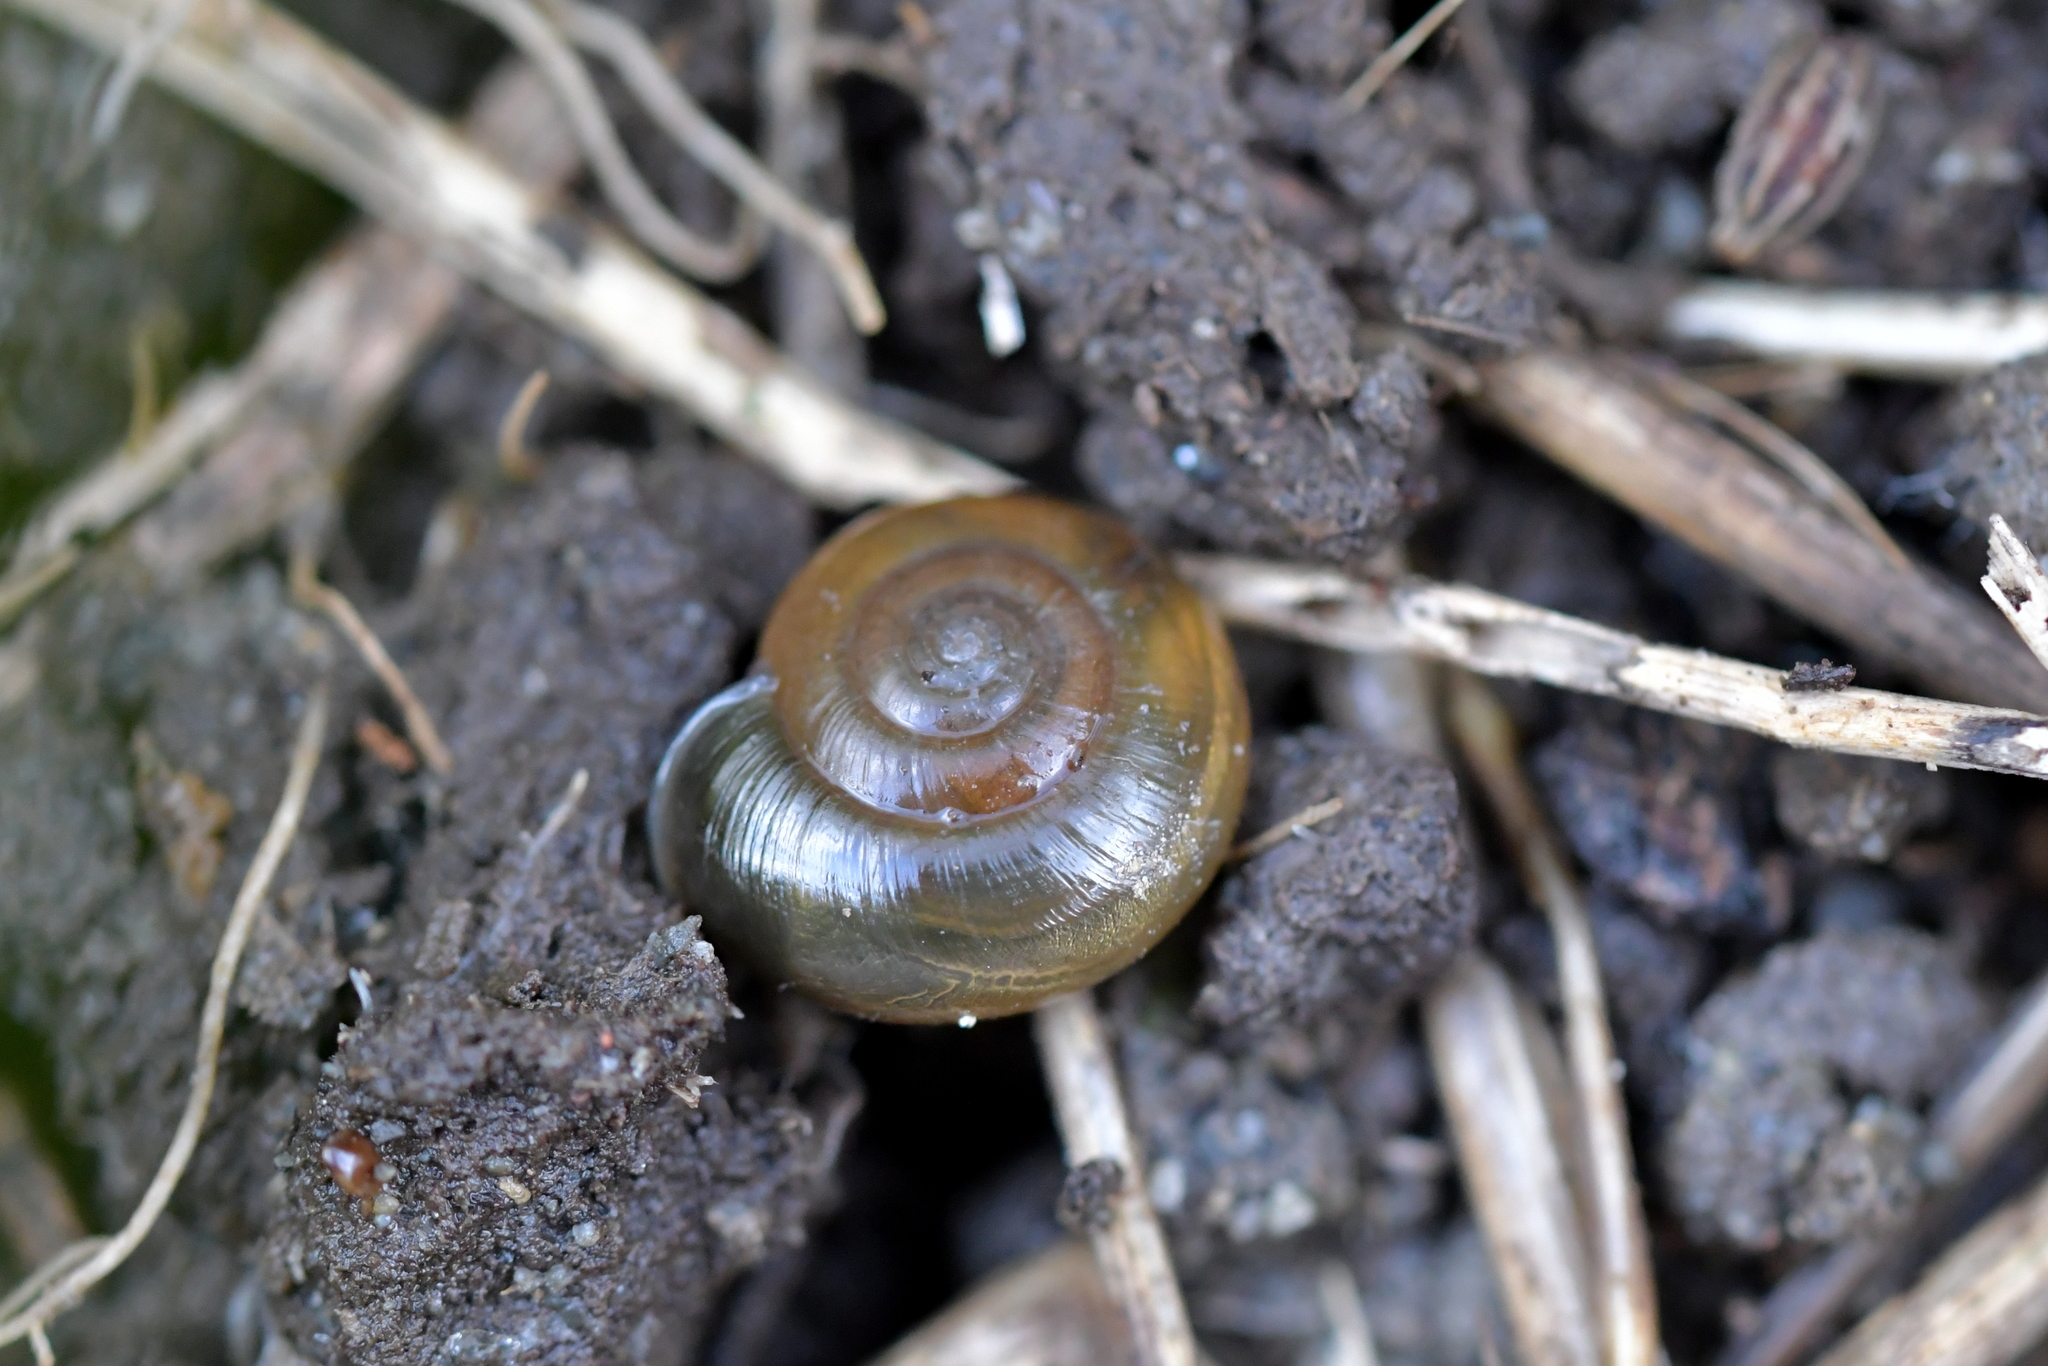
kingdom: Animalia
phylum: Mollusca
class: Gastropoda
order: Stylommatophora
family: Oxychilidae
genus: Oxychilus
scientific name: Oxychilus
